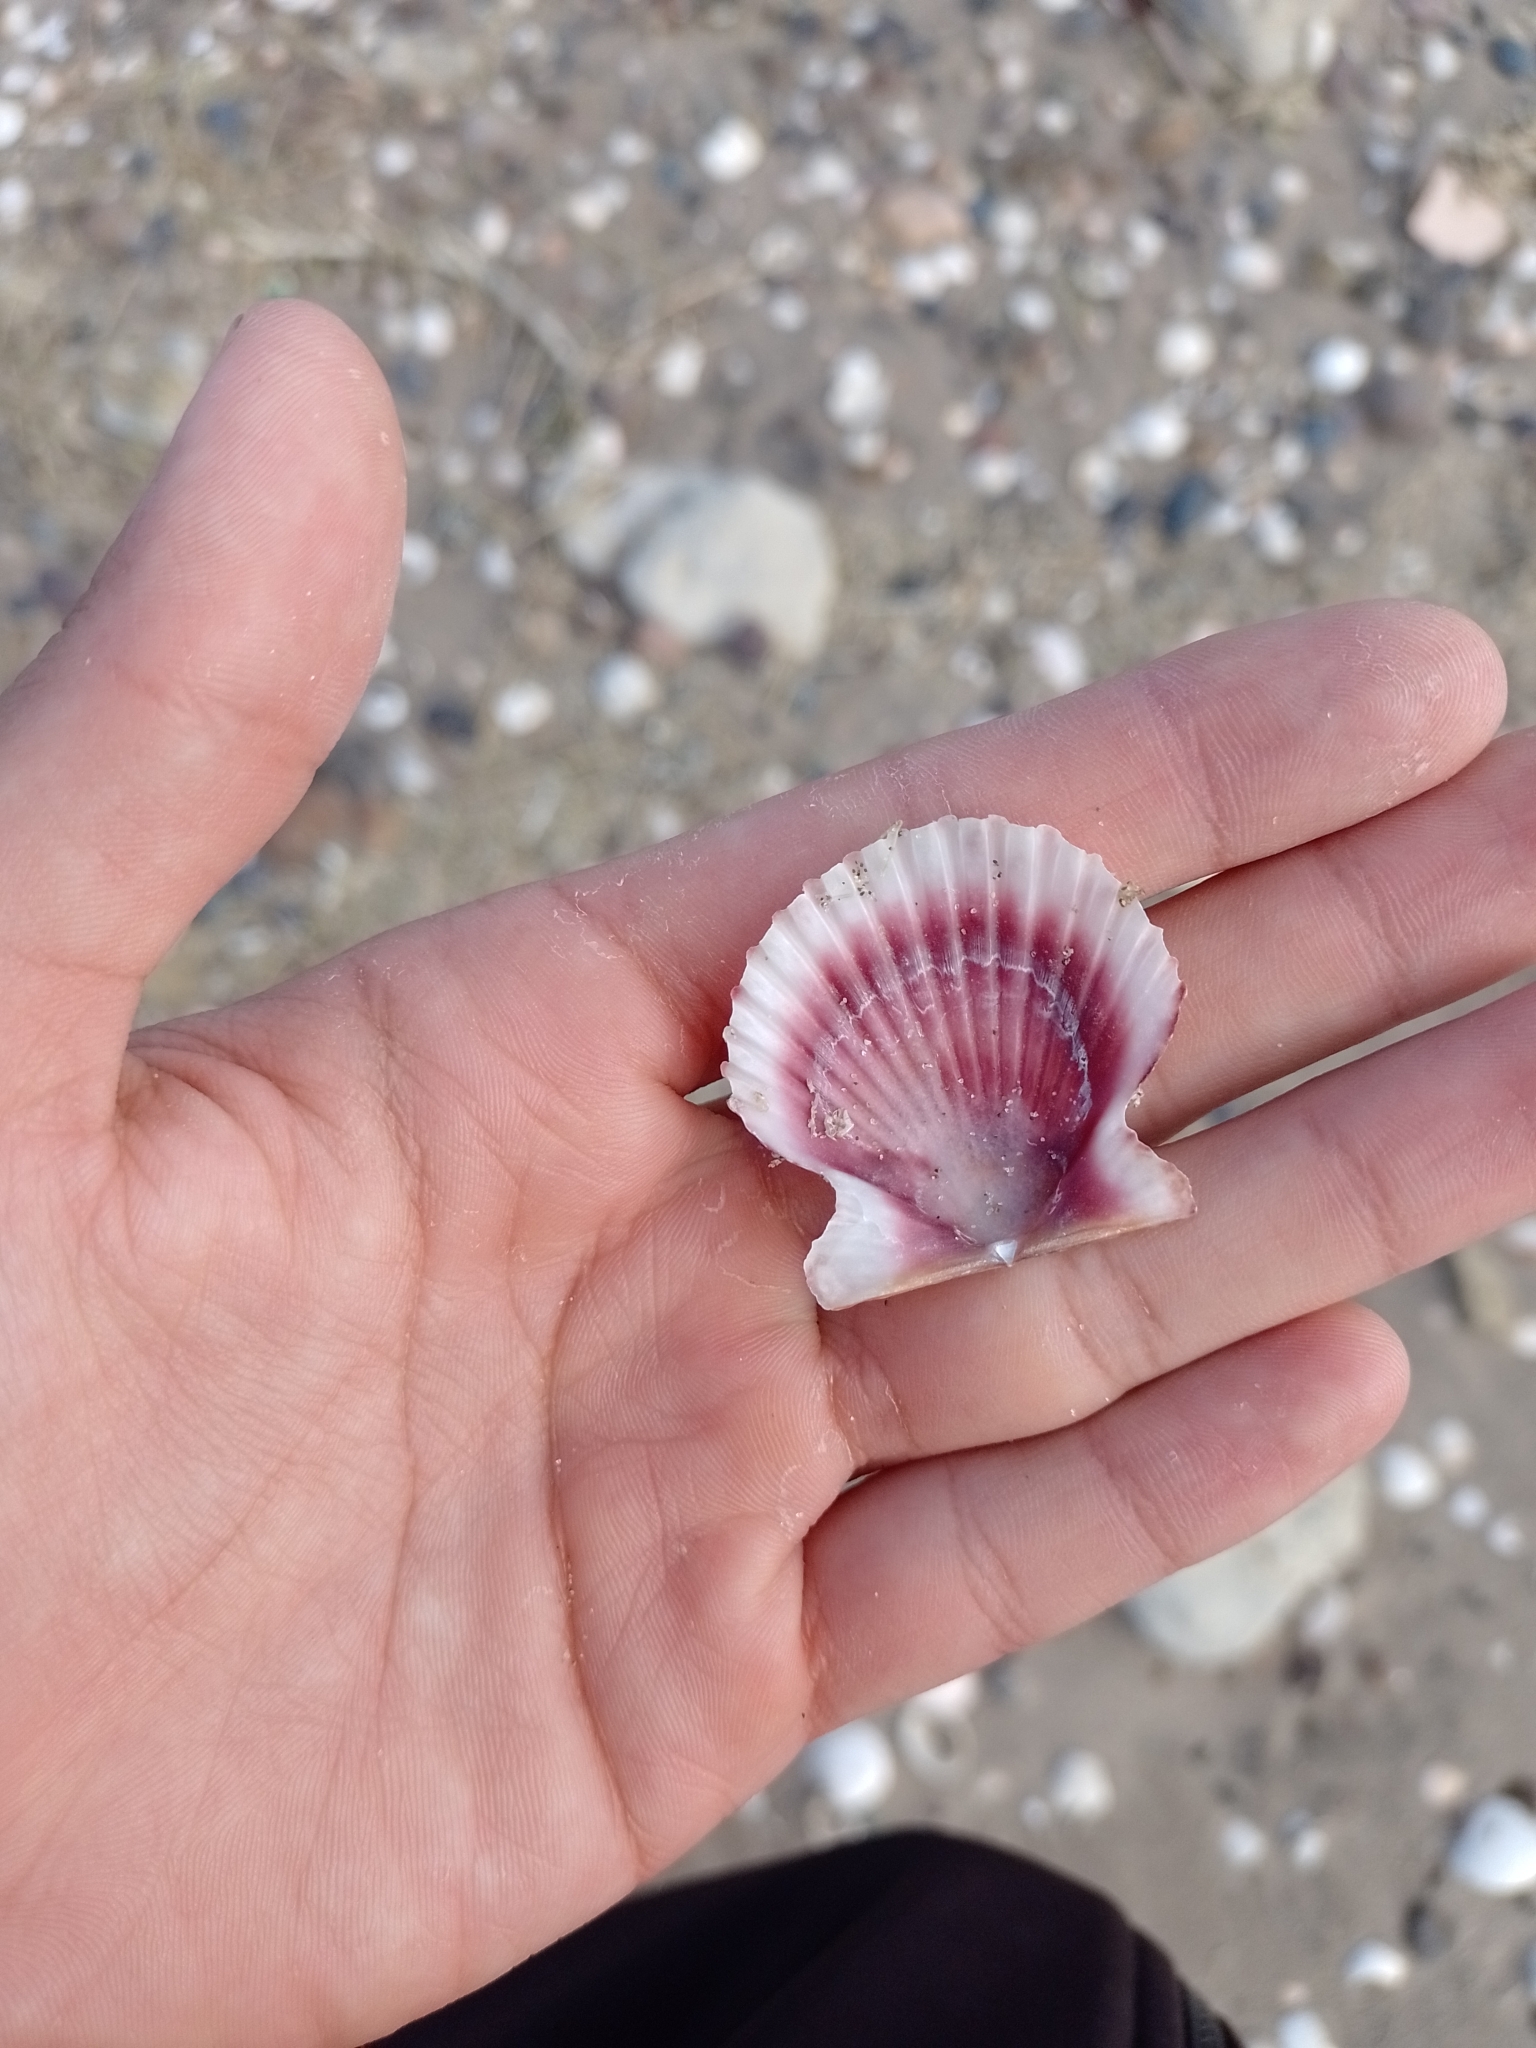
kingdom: Animalia
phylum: Mollusca
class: Bivalvia
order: Pectinida
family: Pectinidae
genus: Aequipecten
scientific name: Aequipecten tehuelchus
